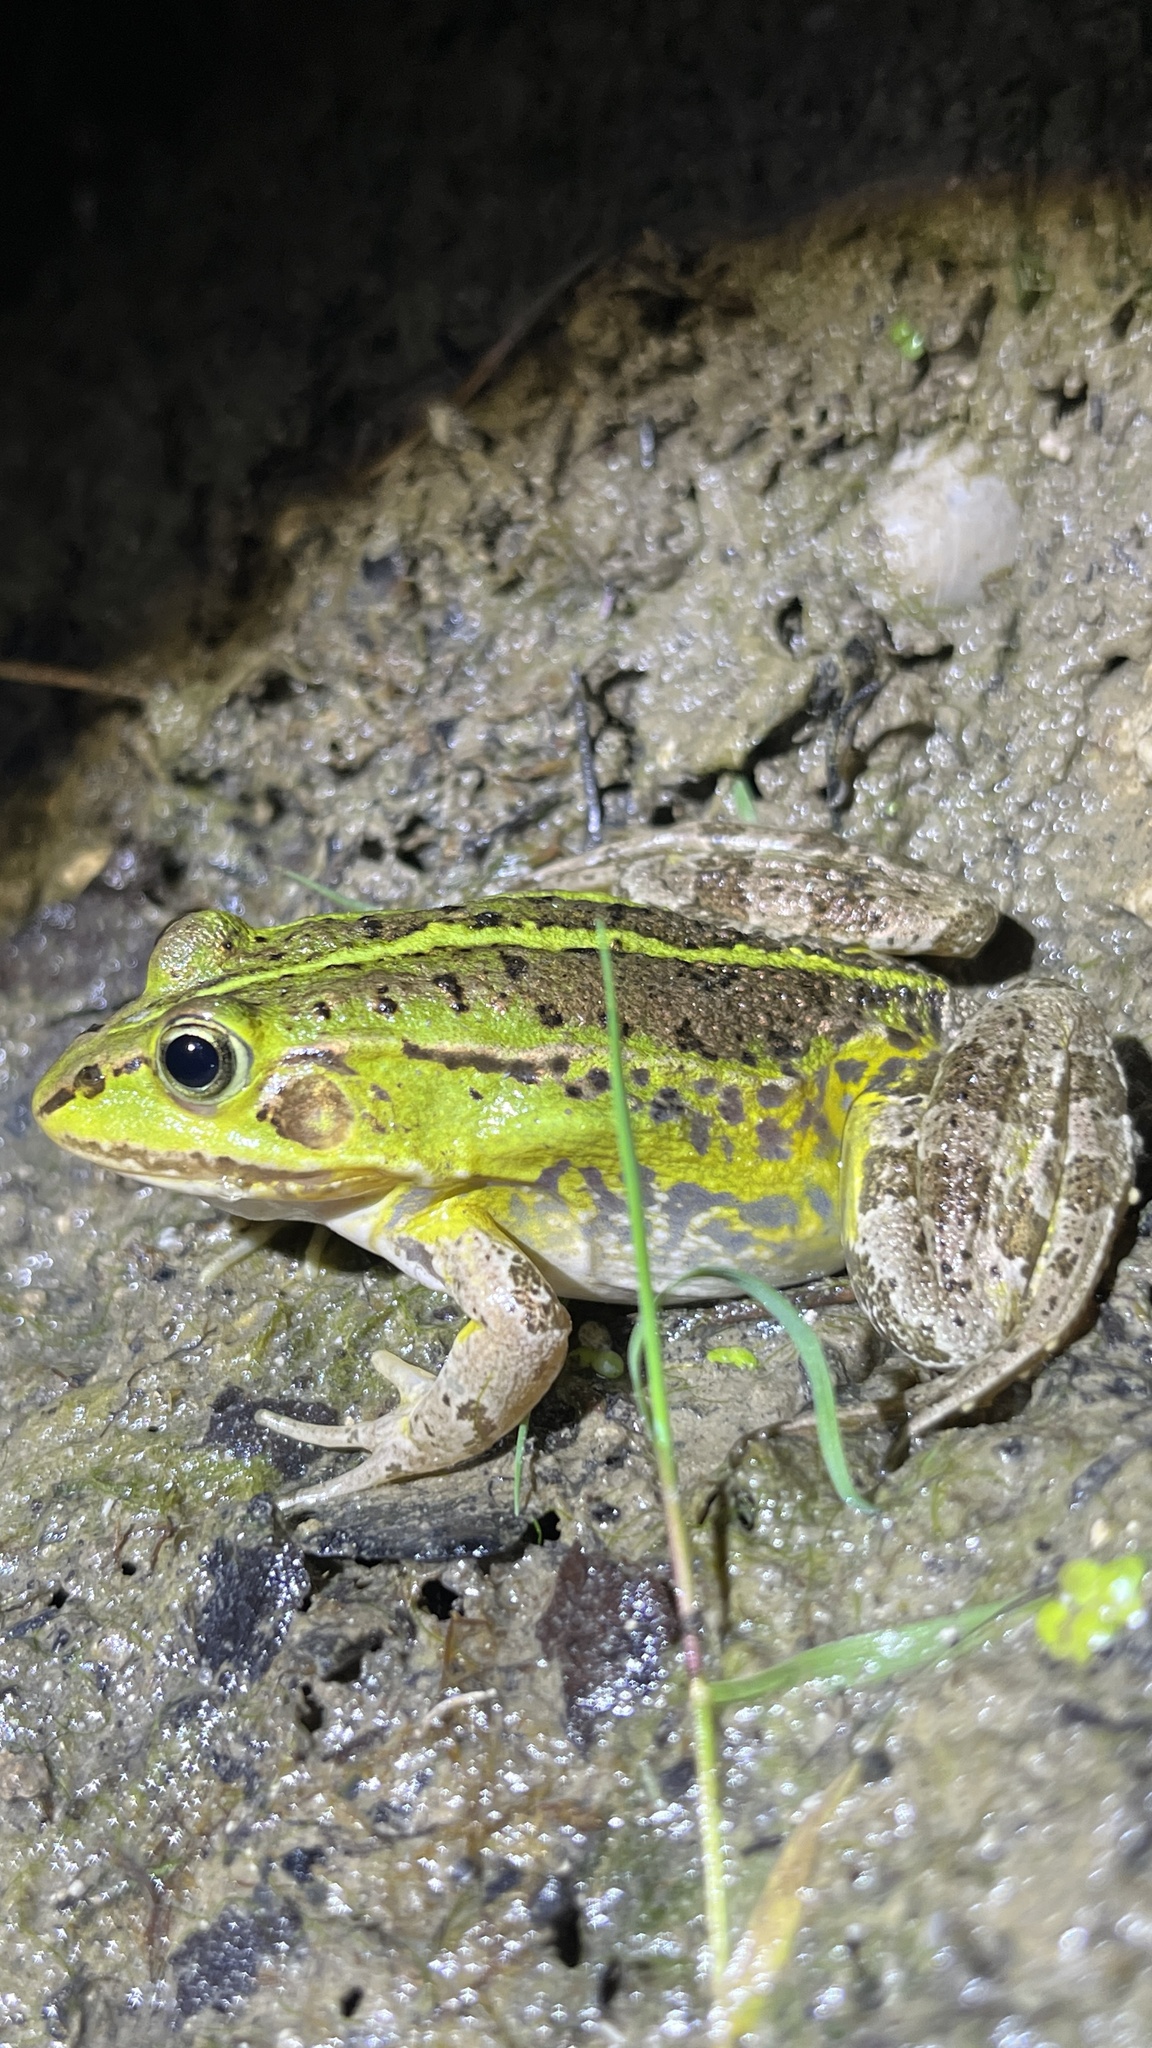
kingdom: Animalia
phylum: Chordata
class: Amphibia
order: Anura
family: Ranidae
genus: Pelophylax
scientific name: Pelophylax lessonae
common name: Pool frog
